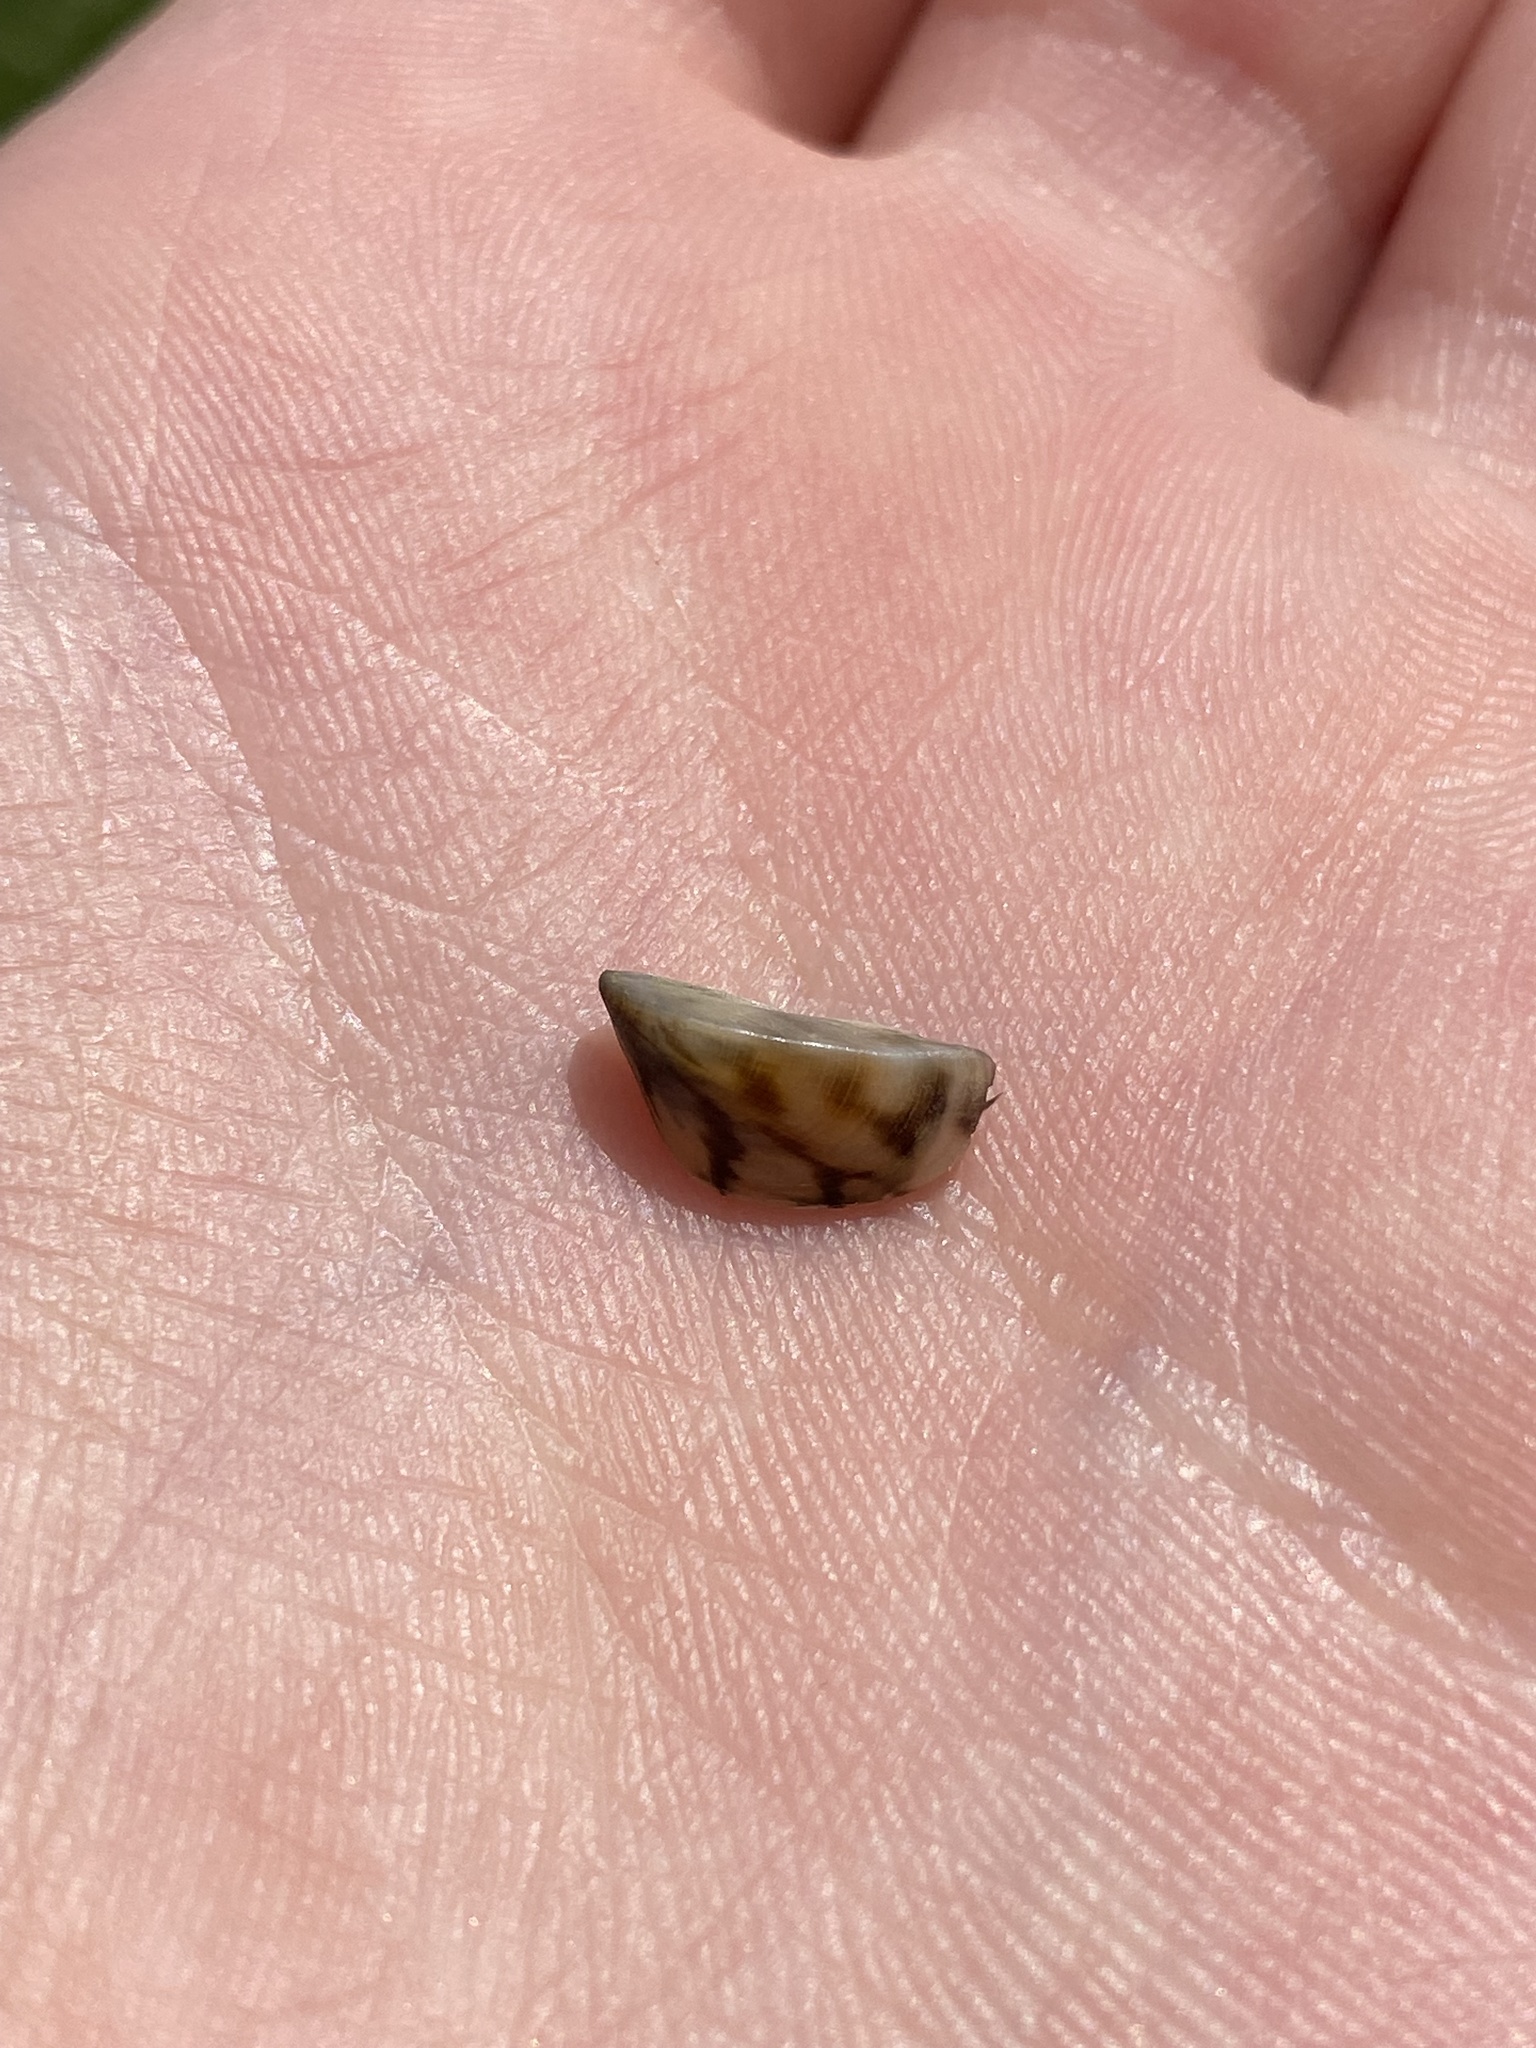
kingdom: Animalia
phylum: Mollusca
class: Bivalvia
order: Myida
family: Dreissenidae
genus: Dreissena
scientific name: Dreissena polymorpha
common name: Zebra mussel
